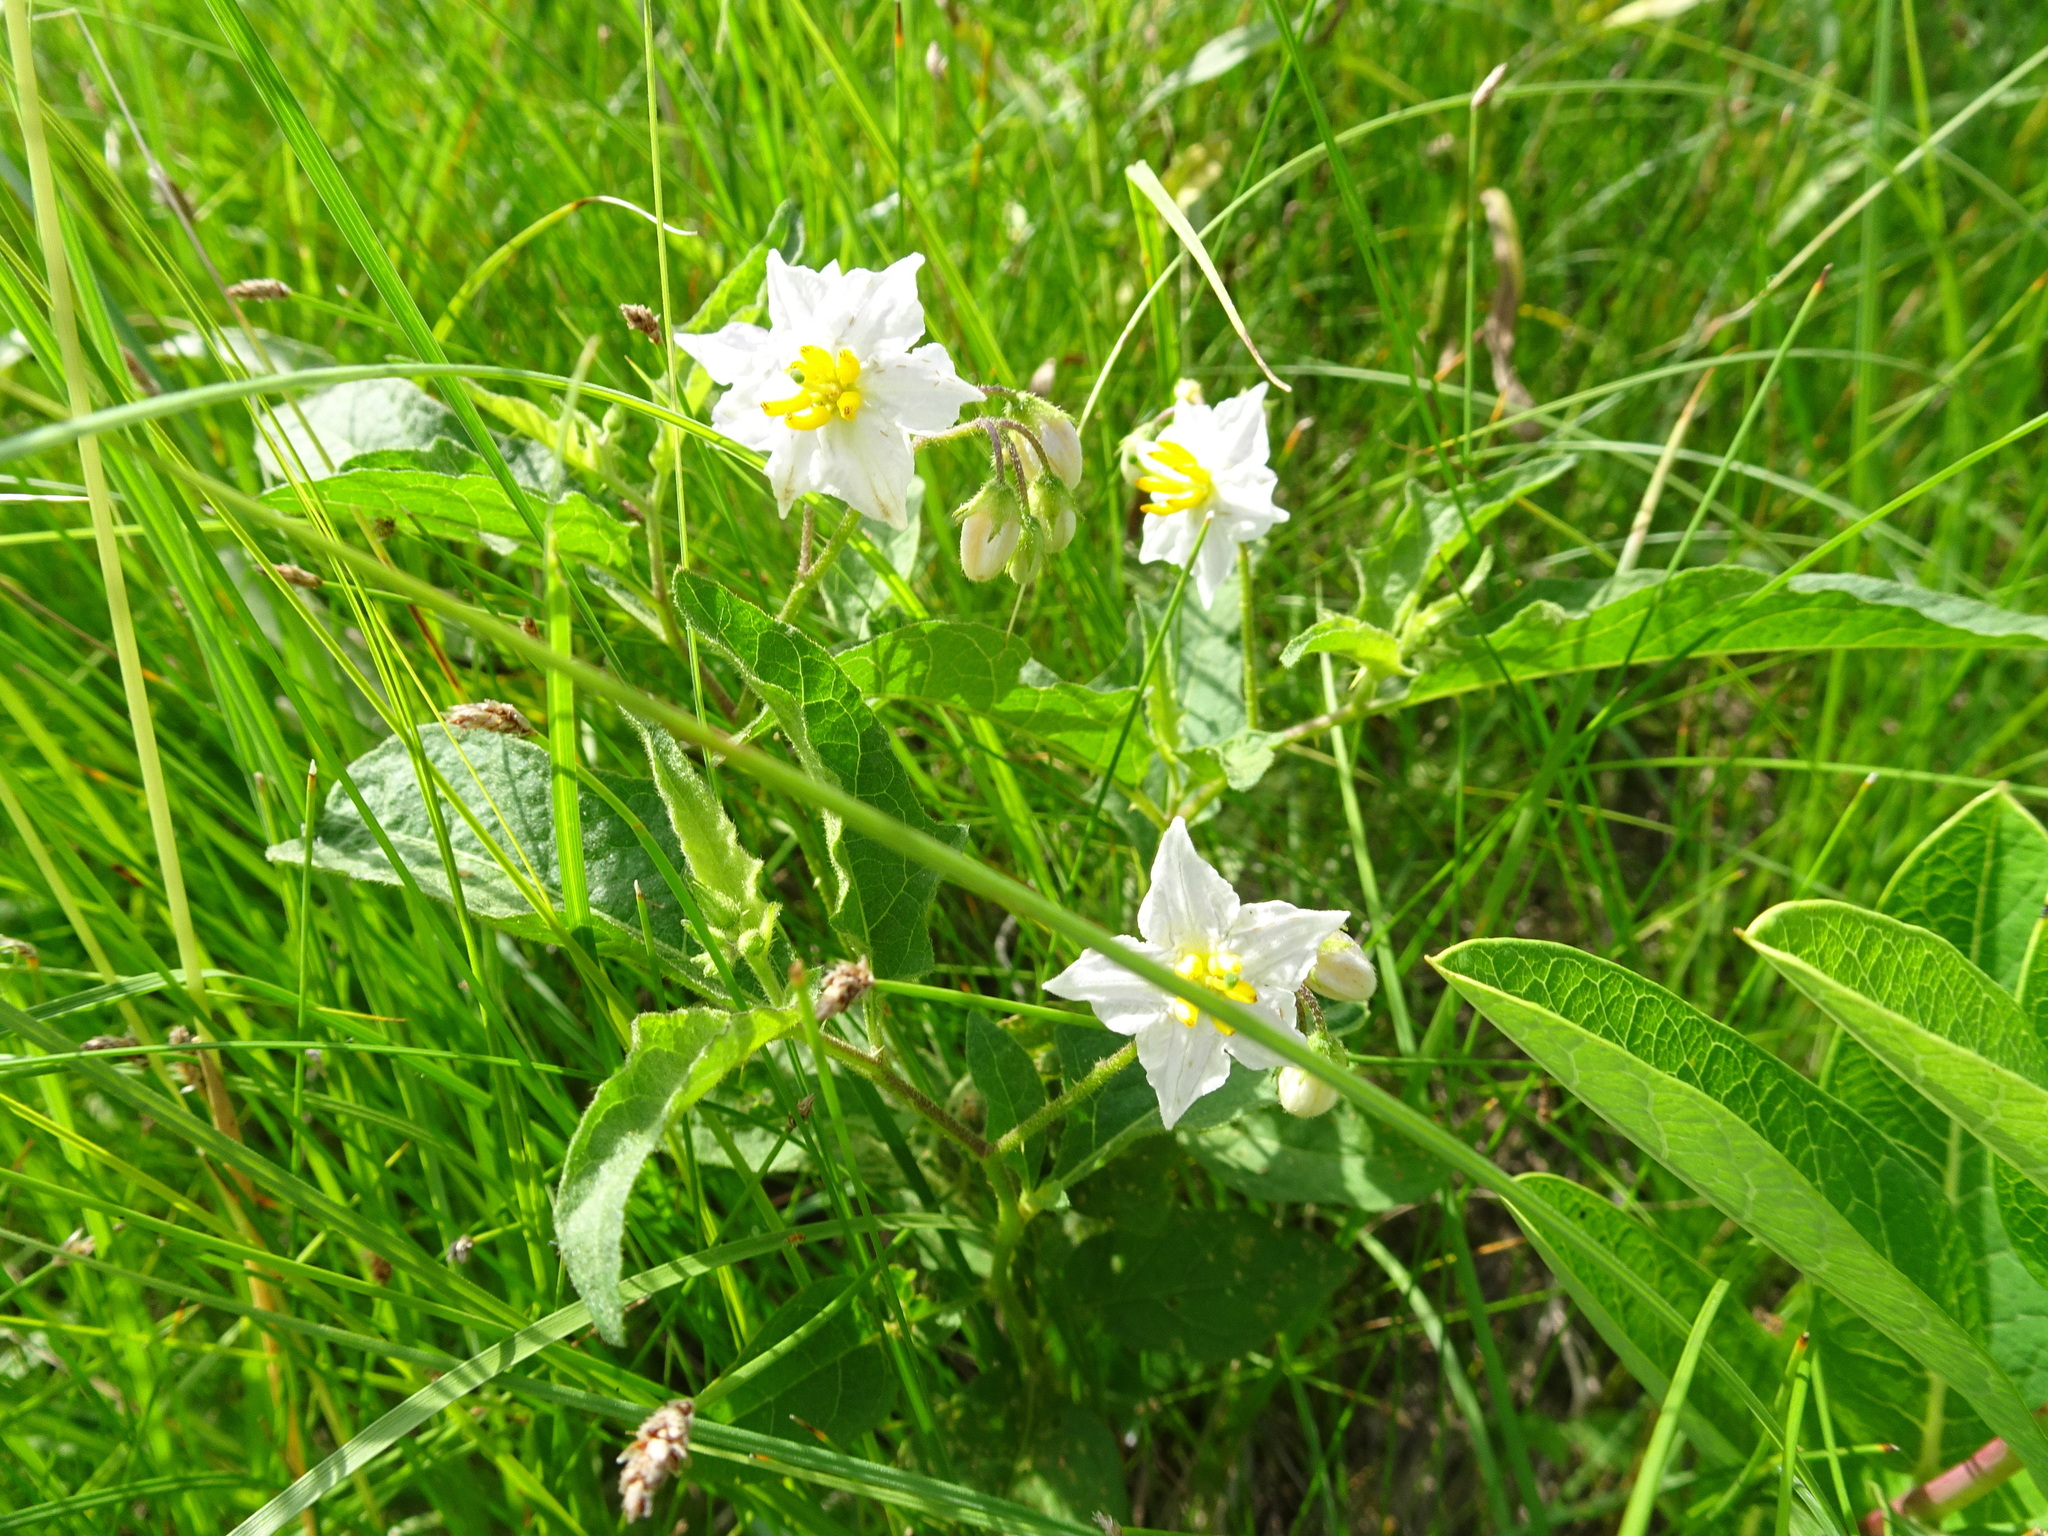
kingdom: Plantae
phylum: Tracheophyta
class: Magnoliopsida
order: Solanales
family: Solanaceae
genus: Solanum
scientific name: Solanum carolinense
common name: Horse-nettle
